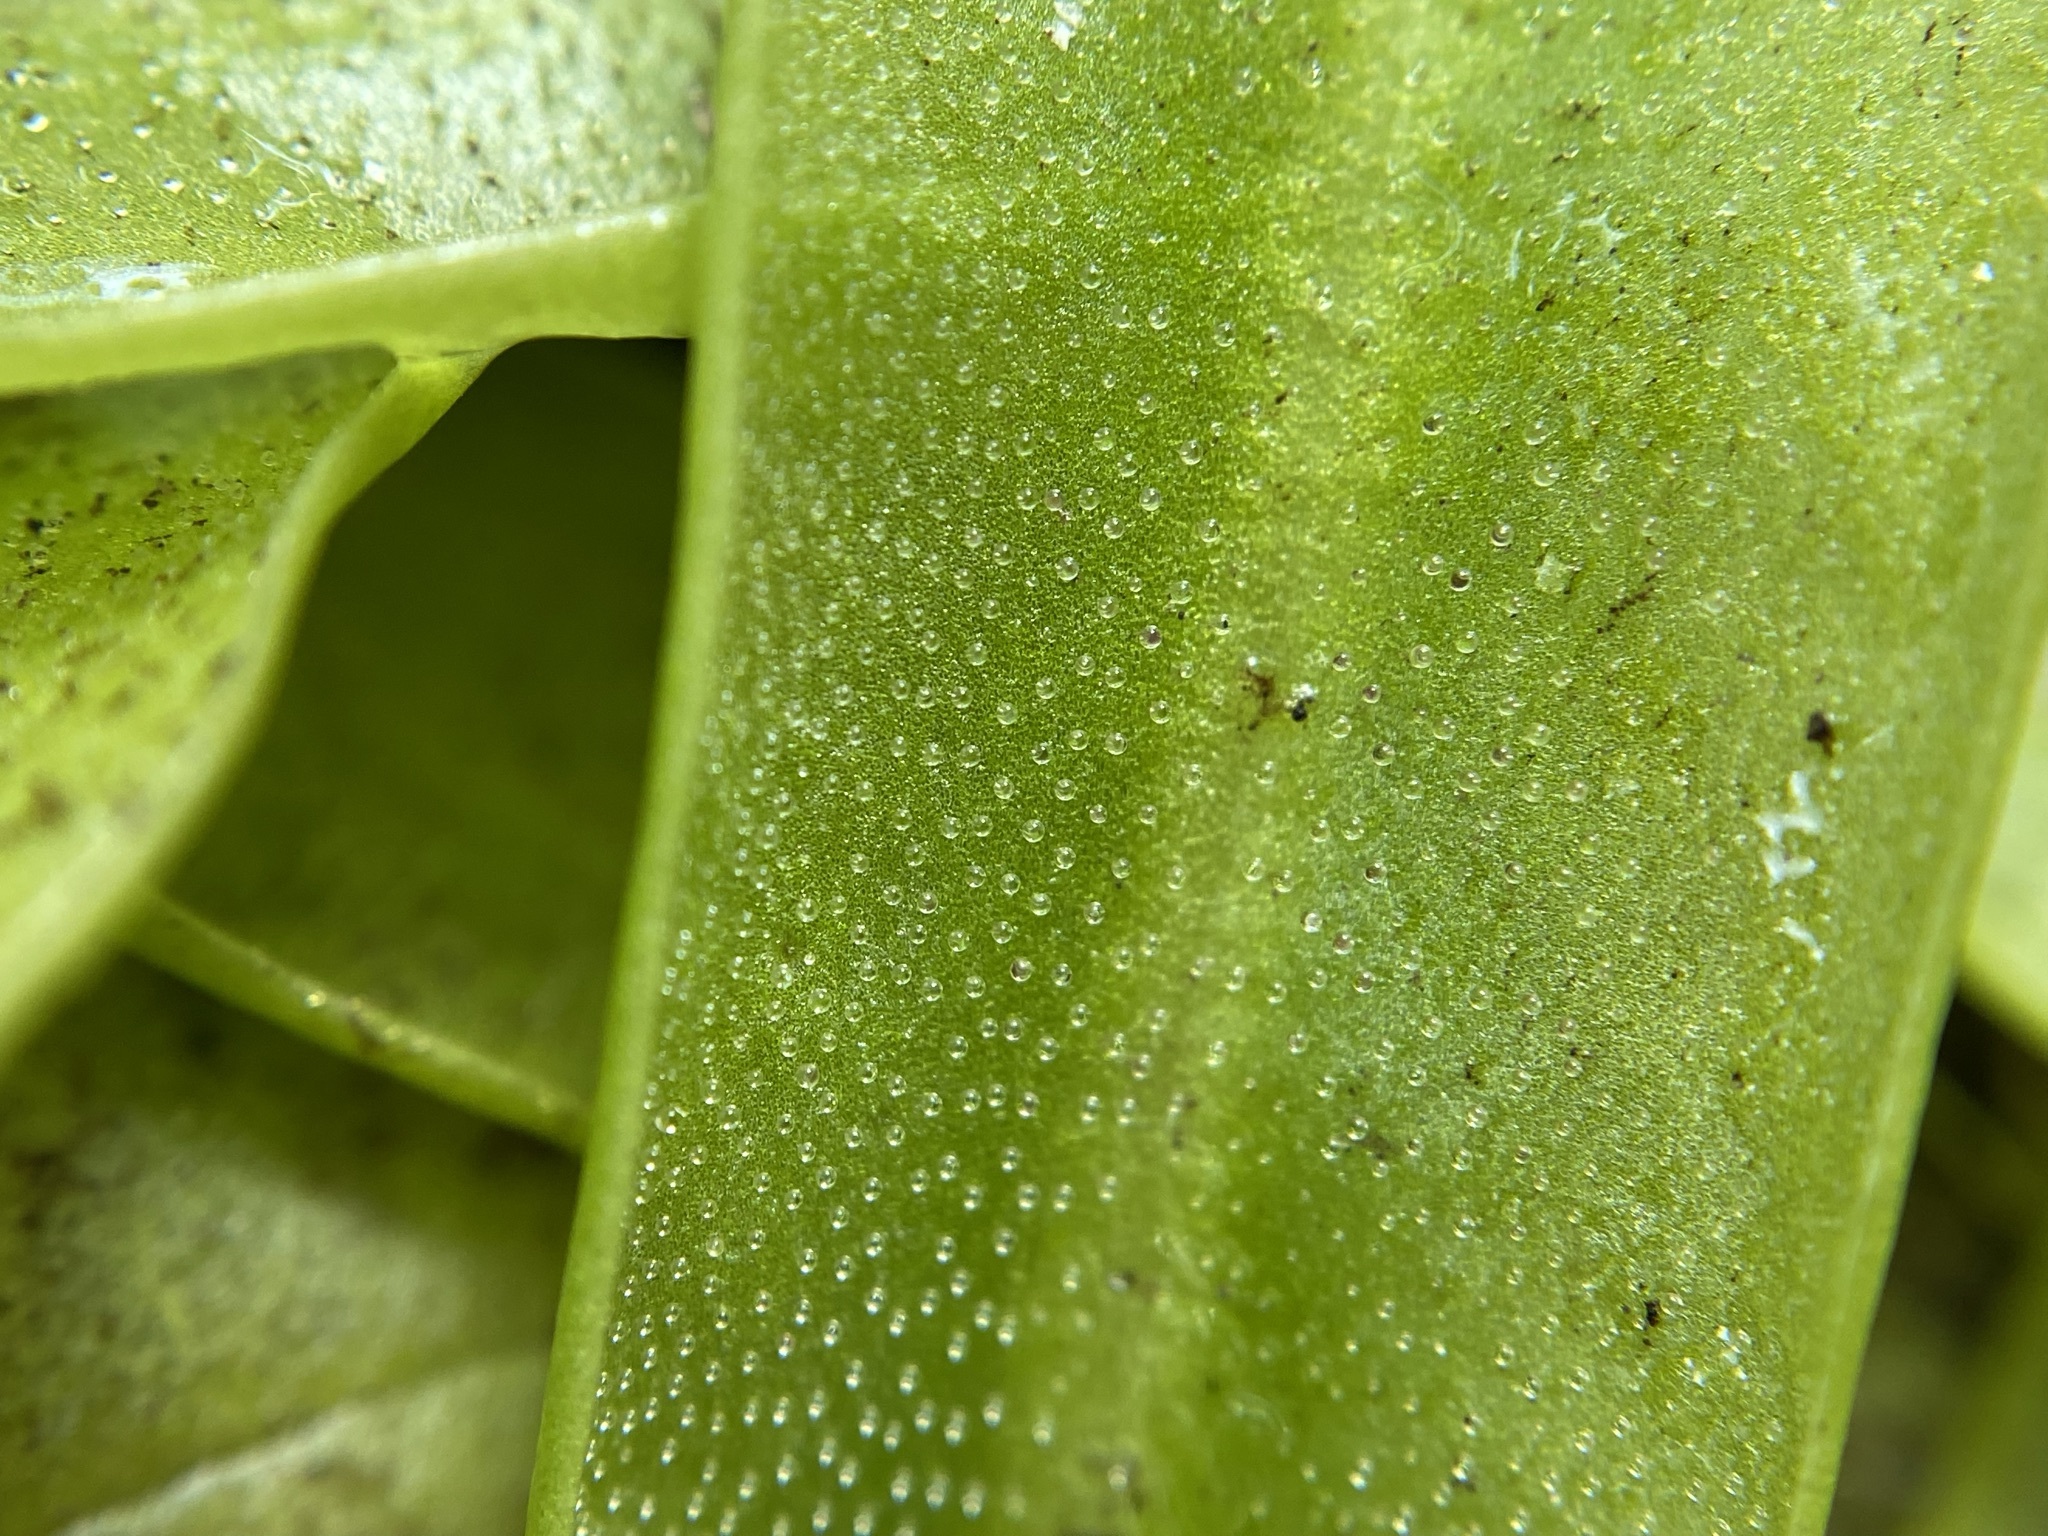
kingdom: Plantae
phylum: Tracheophyta
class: Magnoliopsida
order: Lamiales
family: Lentibulariaceae
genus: Pinguicula
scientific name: Pinguicula primuliflora
